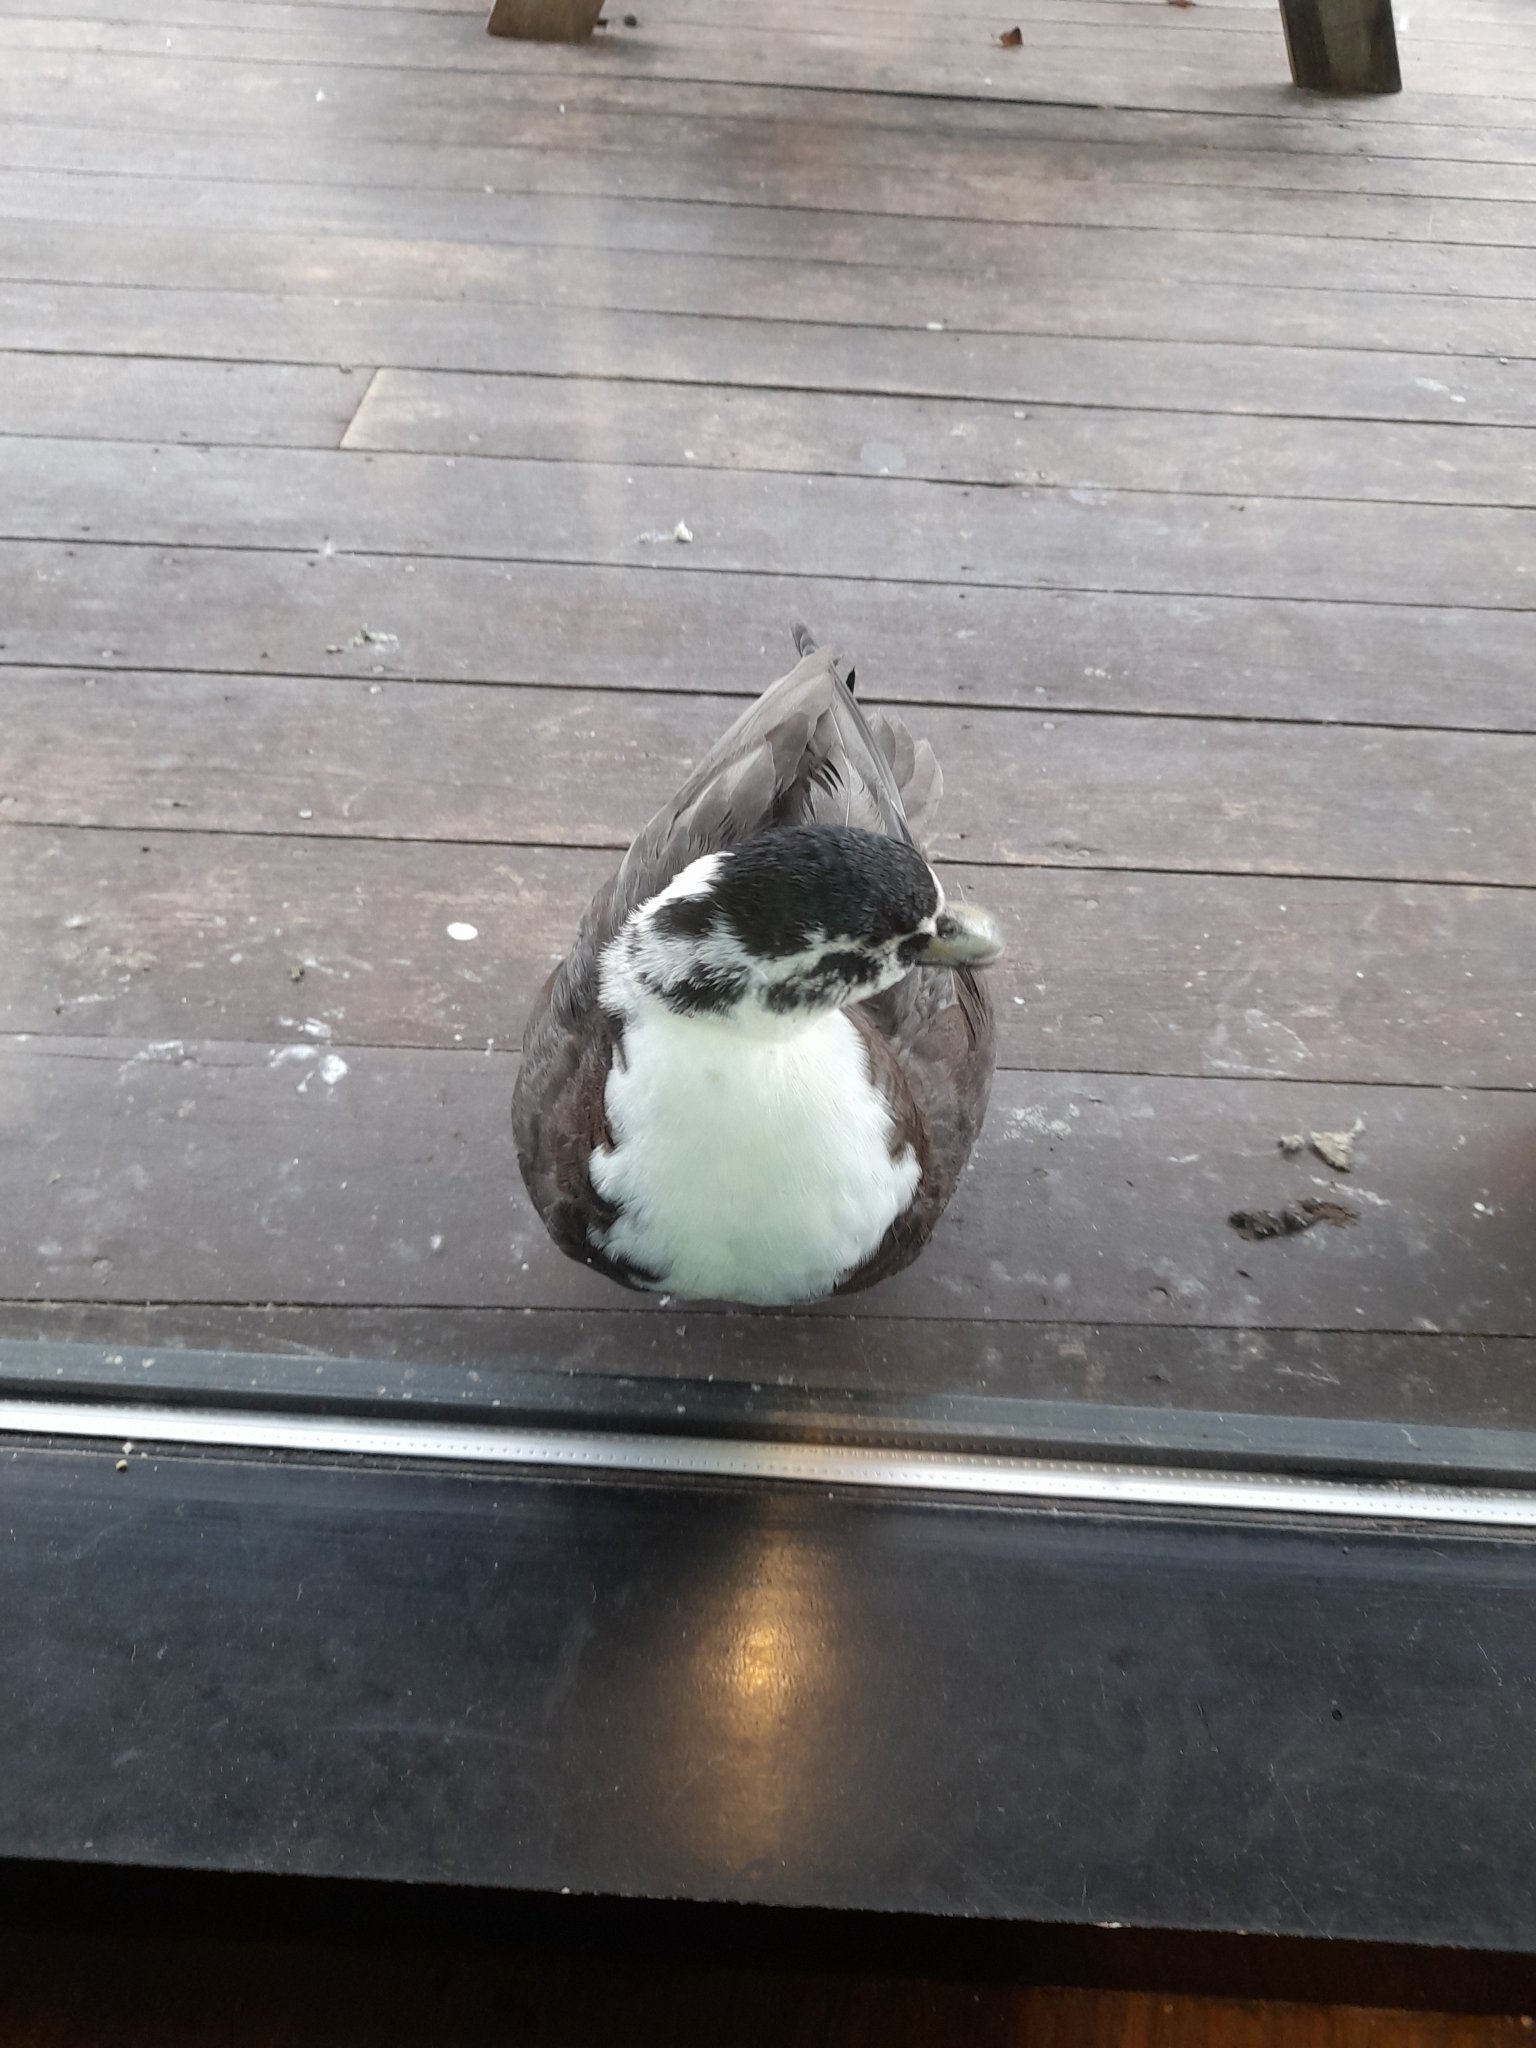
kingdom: Animalia
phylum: Chordata
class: Aves
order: Anseriformes
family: Anatidae
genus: Anas
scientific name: Anas platyrhynchos
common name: Mallard
